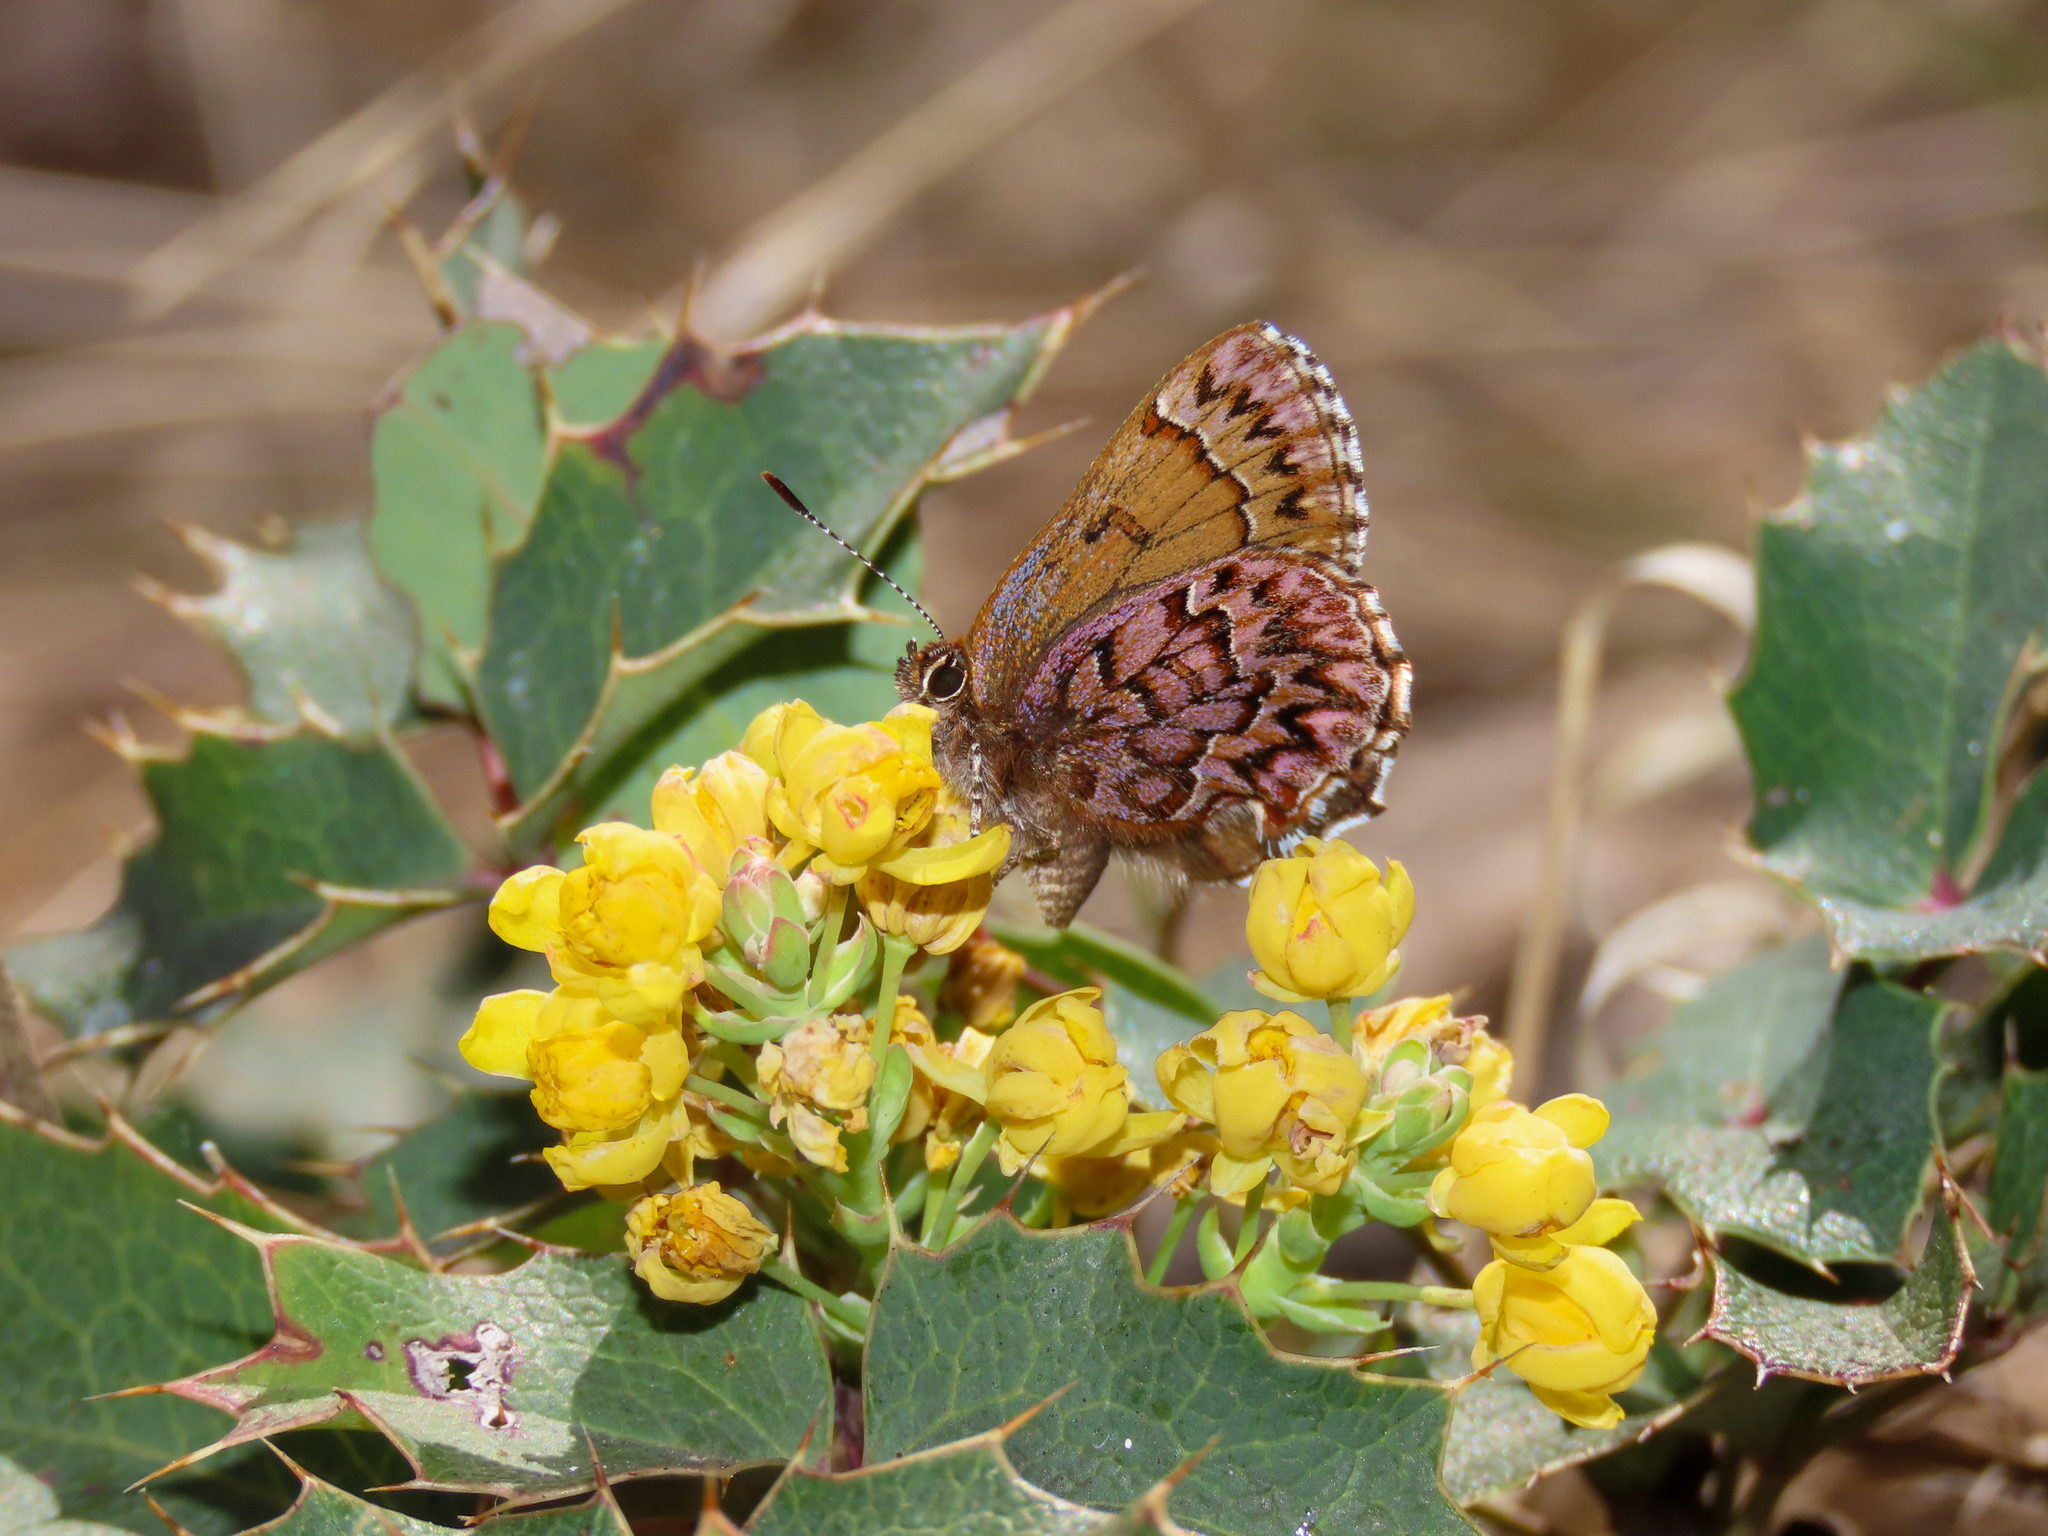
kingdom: Animalia
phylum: Arthropoda
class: Insecta
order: Lepidoptera
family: Lycaenidae
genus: Incisalia
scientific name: Incisalia eryphon
